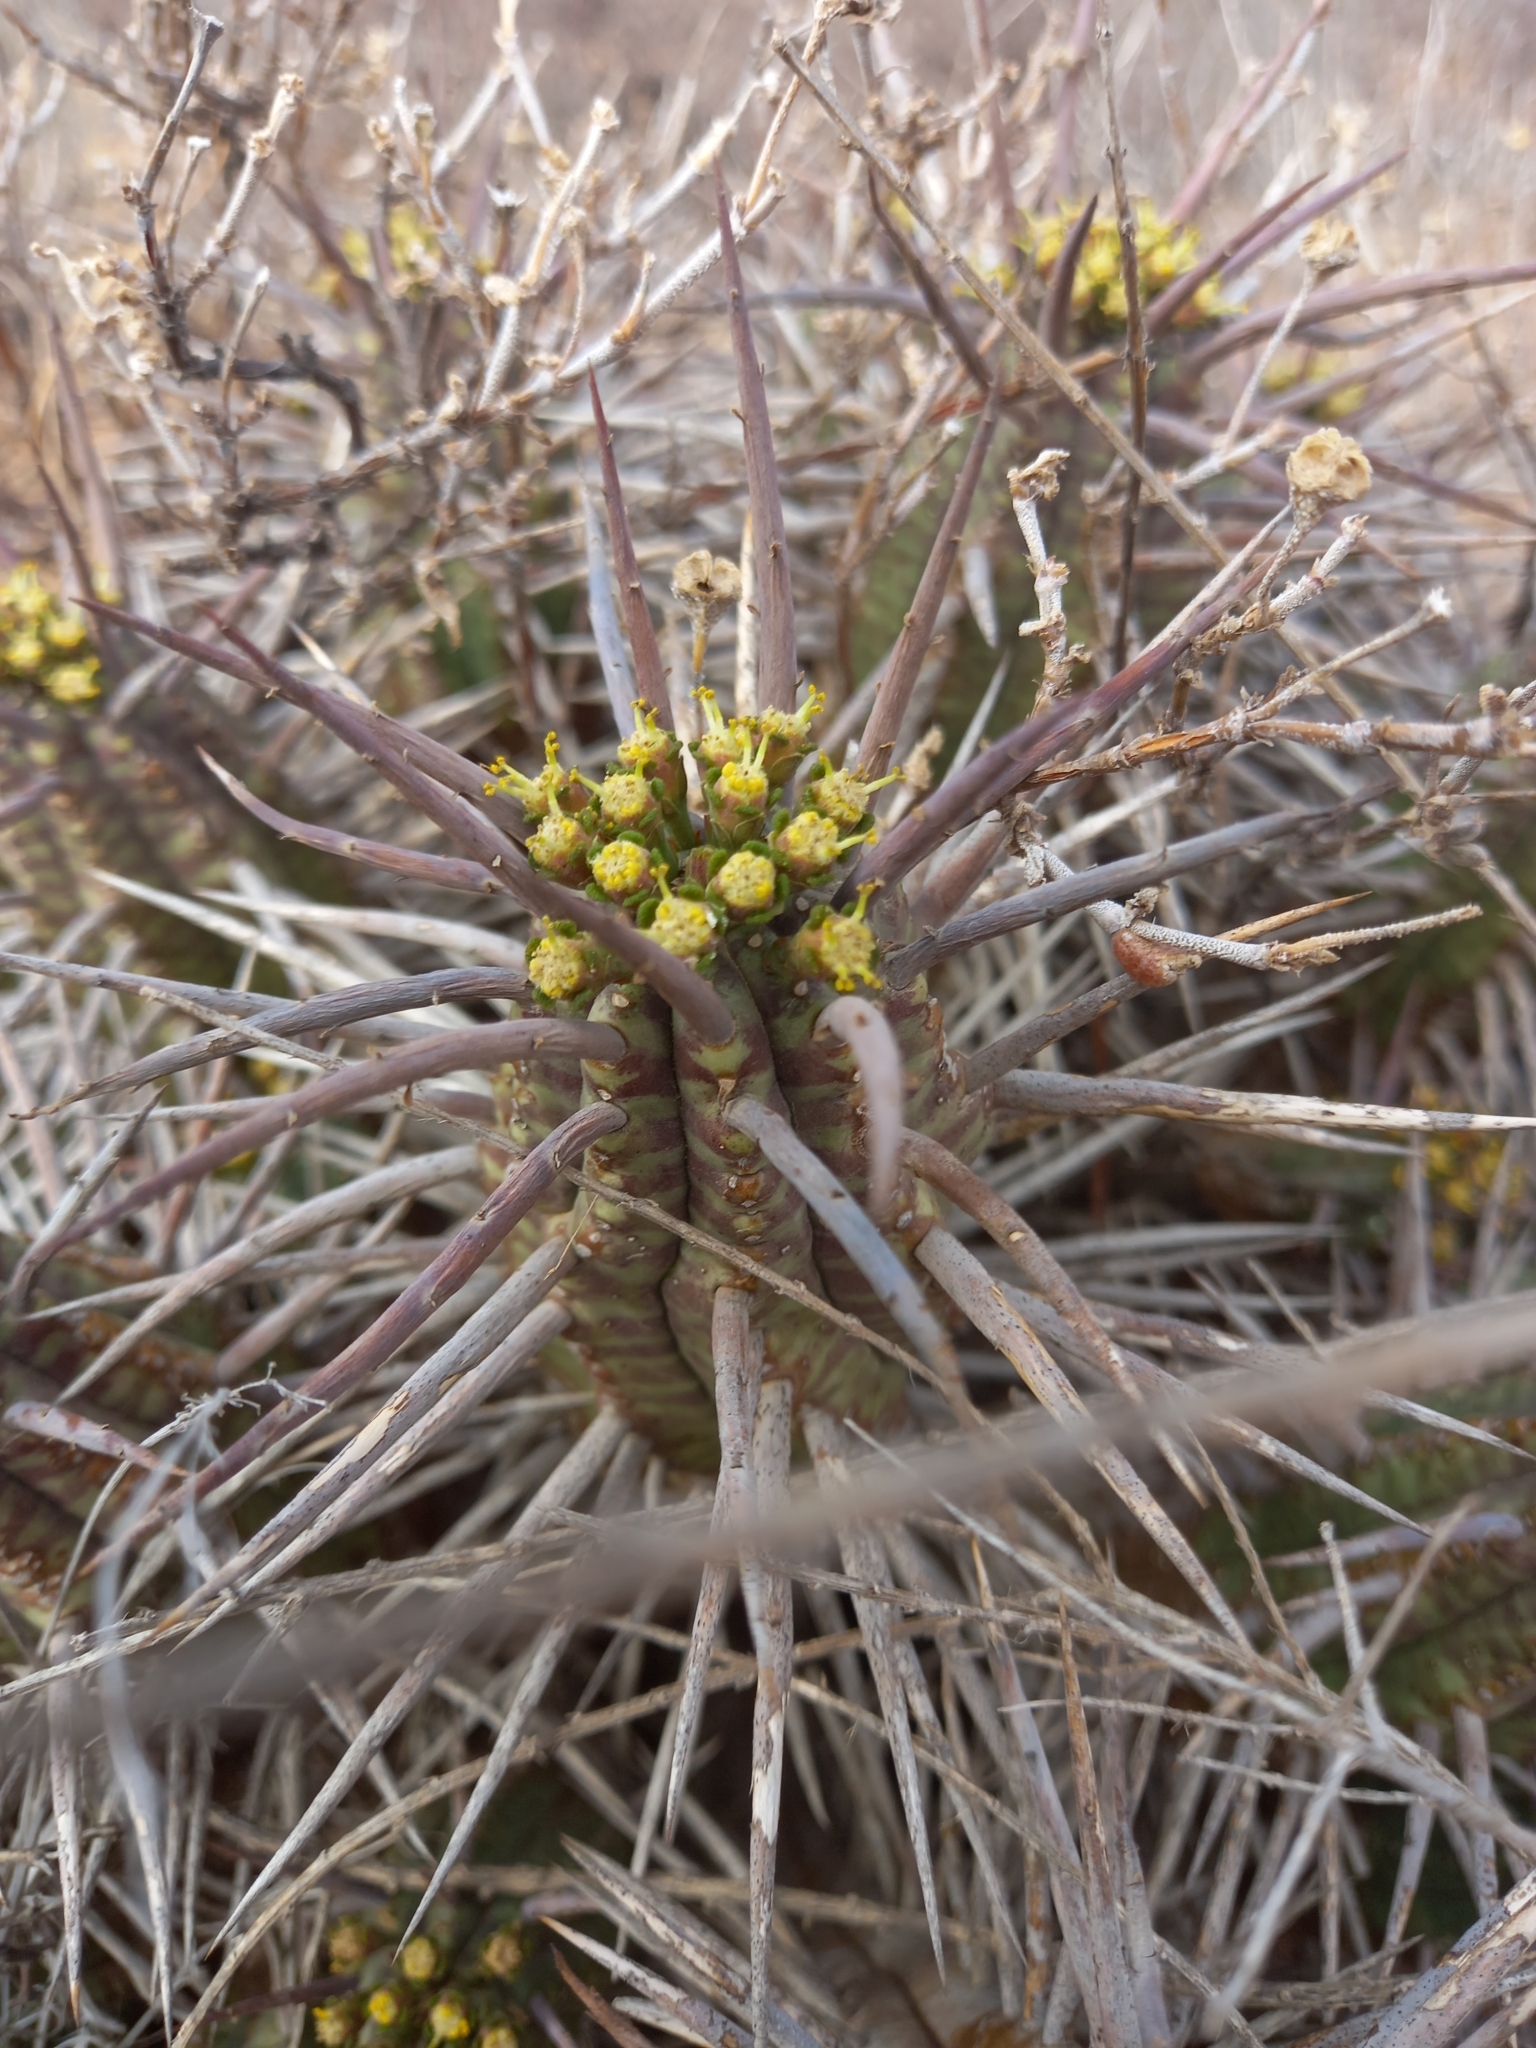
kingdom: Plantae
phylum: Tracheophyta
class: Magnoliopsida
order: Malpighiales
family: Euphorbiaceae
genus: Euphorbia
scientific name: Euphorbia ferox
